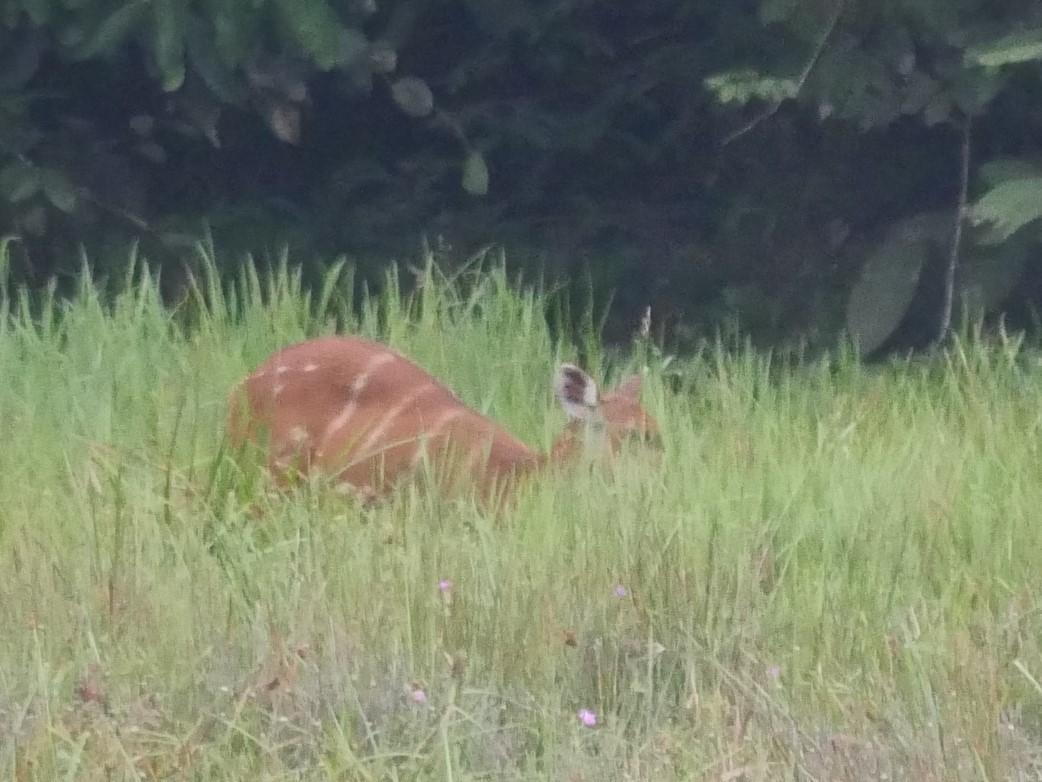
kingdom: Animalia
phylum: Chordata
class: Mammalia
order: Artiodactyla
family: Bovidae
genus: Tragelaphus
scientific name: Tragelaphus spekii
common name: Sitatunga
